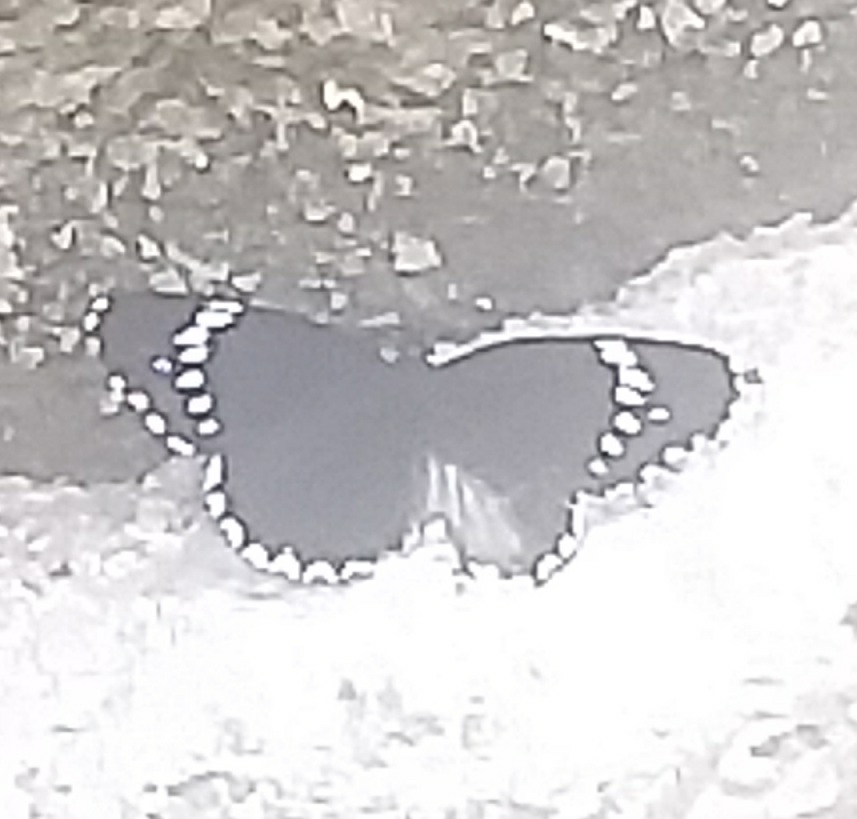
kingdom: Animalia
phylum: Arthropoda
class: Insecta
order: Lepidoptera
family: Nymphalidae
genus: Chlosyne
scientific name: Chlosyne hippodrome
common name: Simple patch
